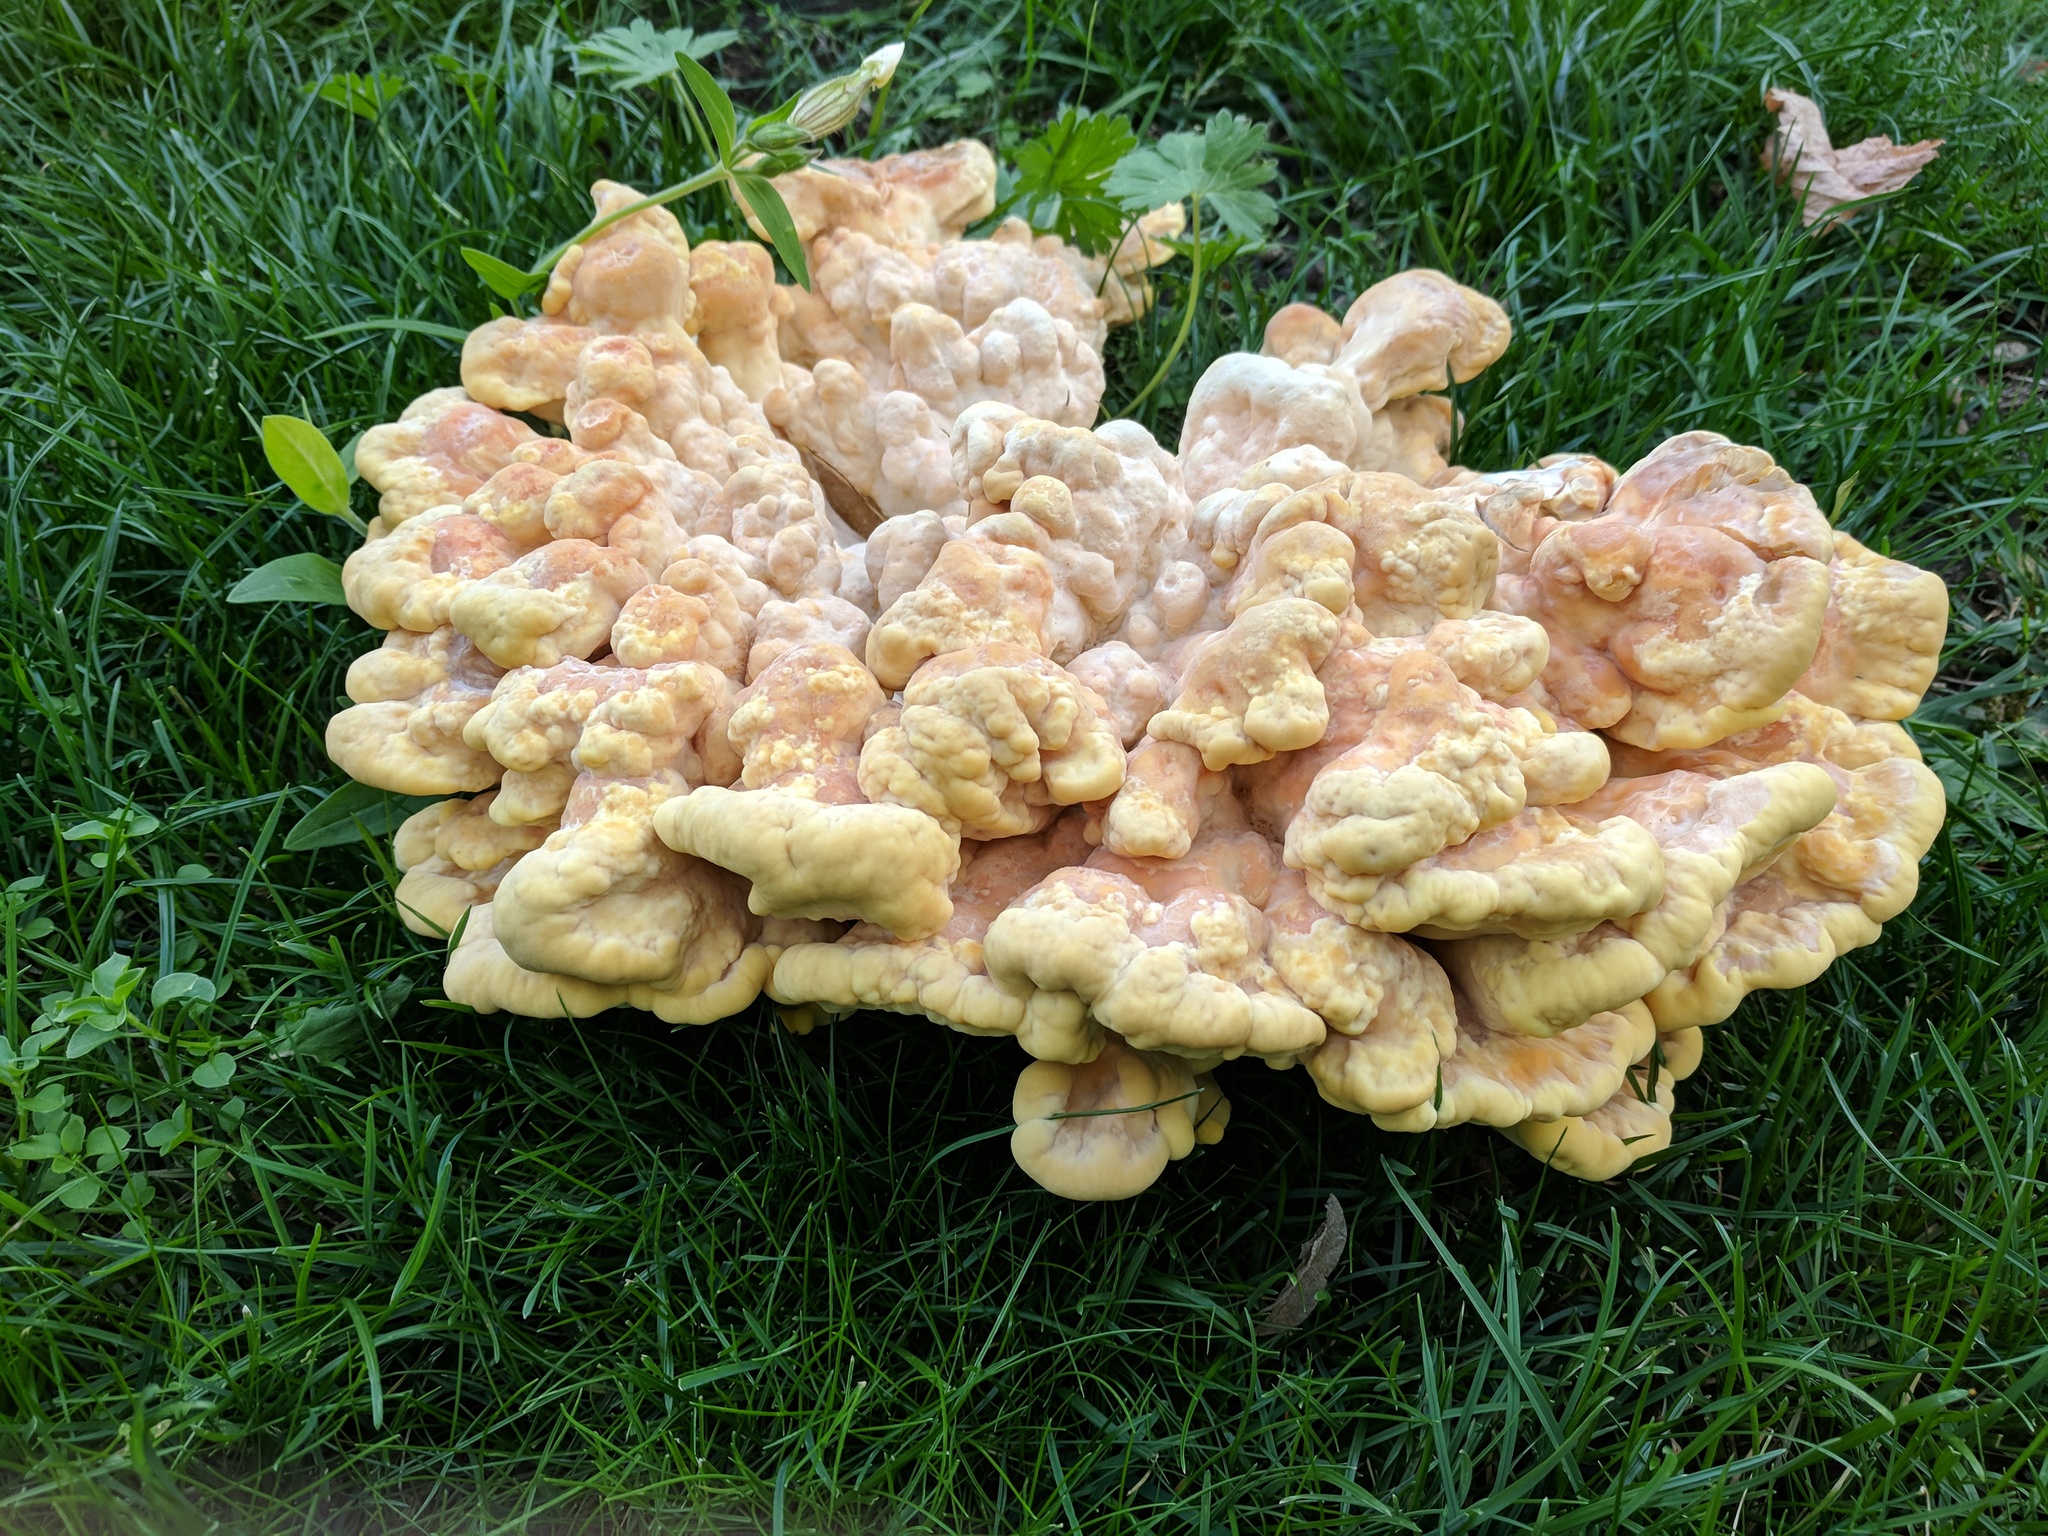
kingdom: Fungi
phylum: Basidiomycota
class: Agaricomycetes
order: Polyporales
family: Laetiporaceae
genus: Laetiporus
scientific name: Laetiporus sulphureus
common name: Chicken of the woods
